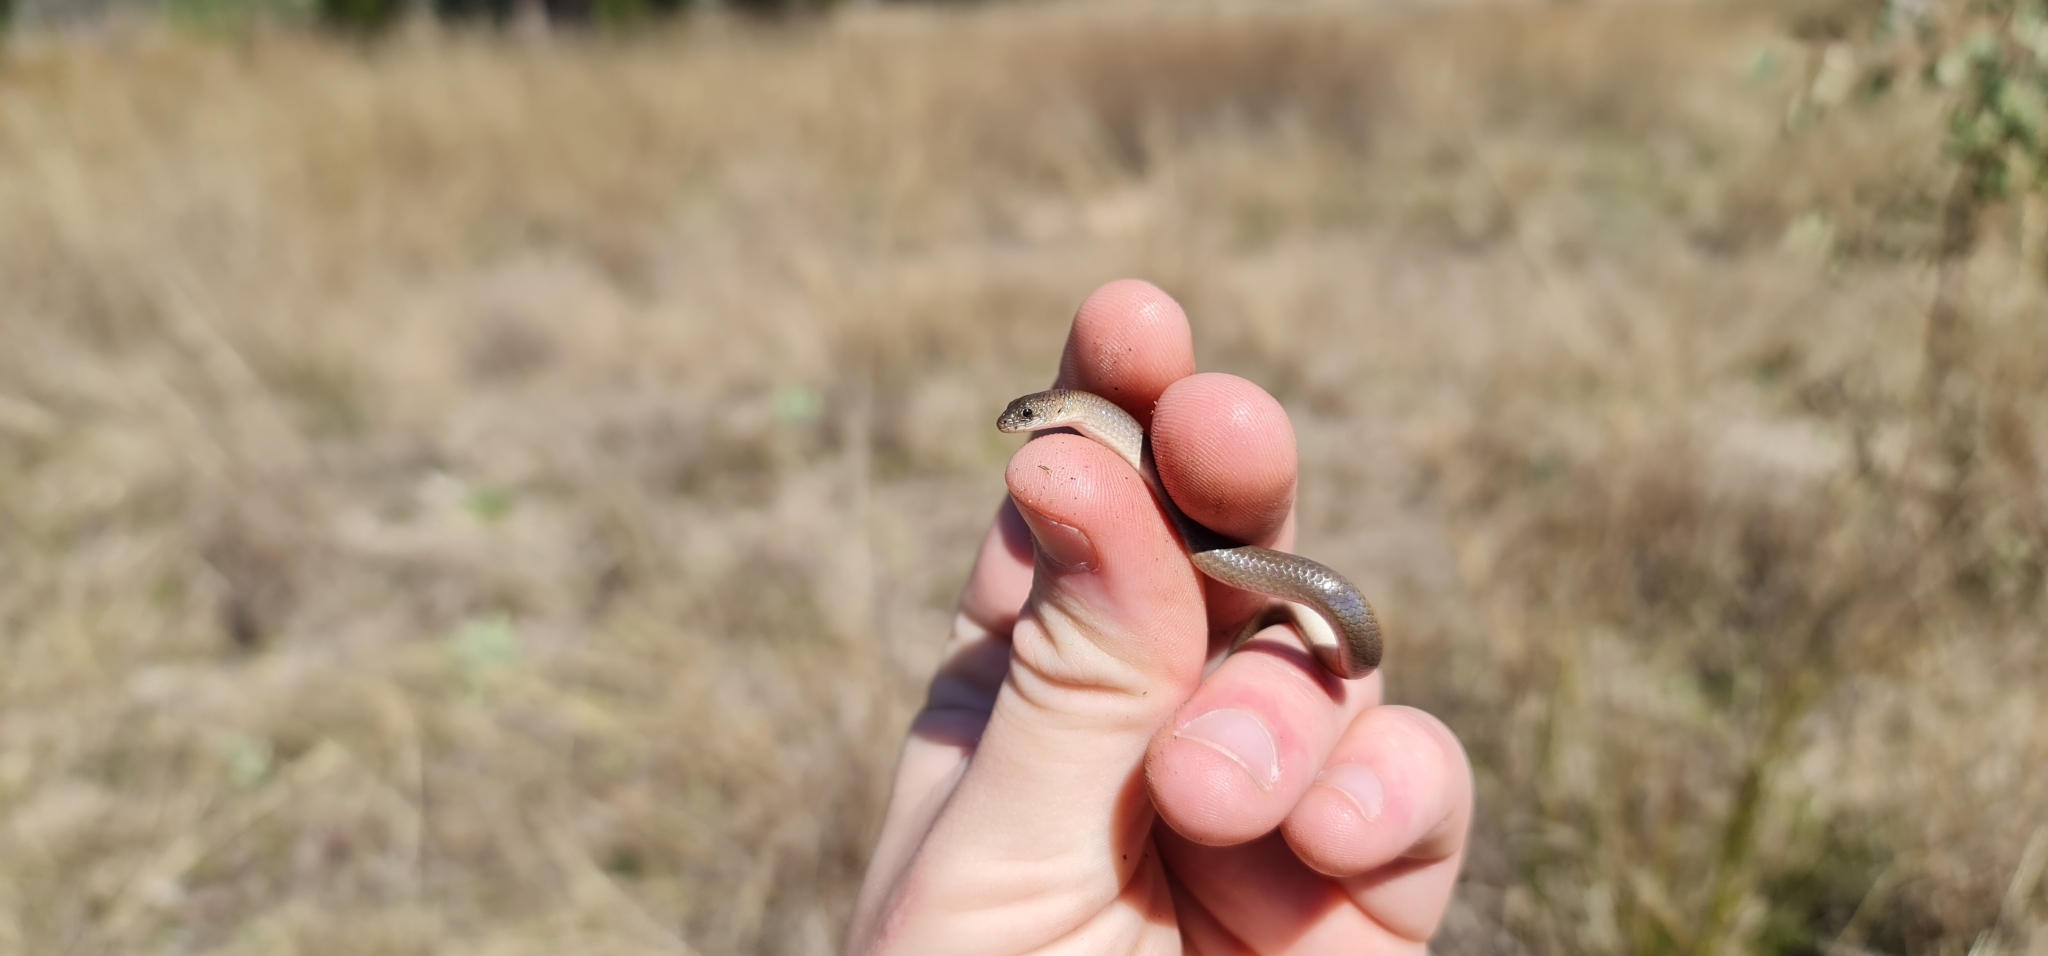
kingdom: Animalia
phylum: Chordata
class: Squamata
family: Pygopodidae
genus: Delma
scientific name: Delma tincta
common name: Excitable delma
